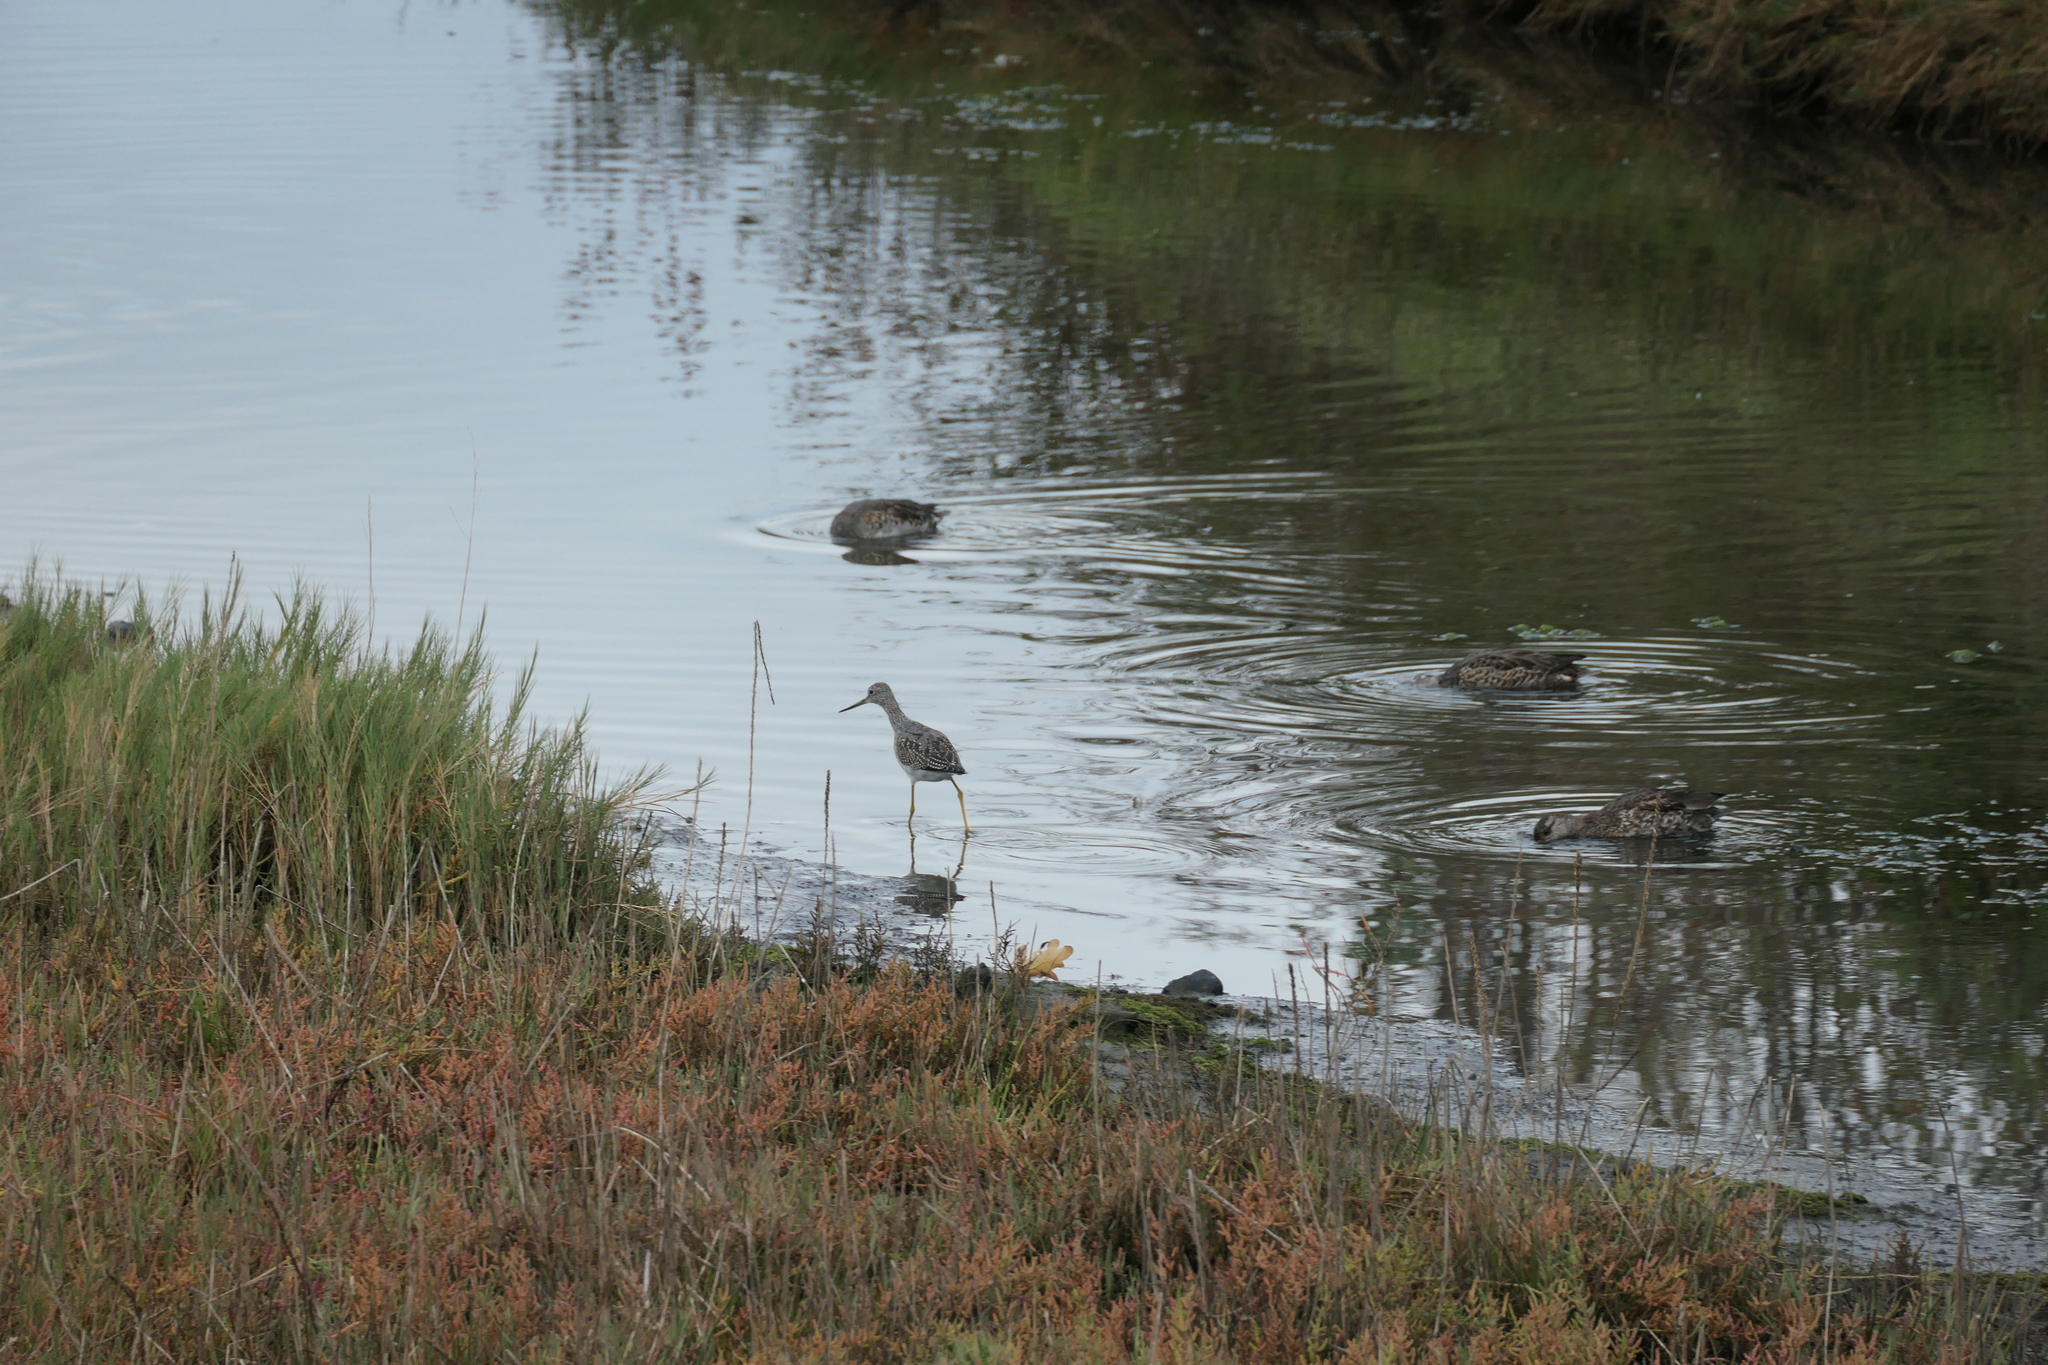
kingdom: Animalia
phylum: Chordata
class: Aves
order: Charadriiformes
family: Scolopacidae
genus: Tringa
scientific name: Tringa melanoleuca
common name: Greater yellowlegs
